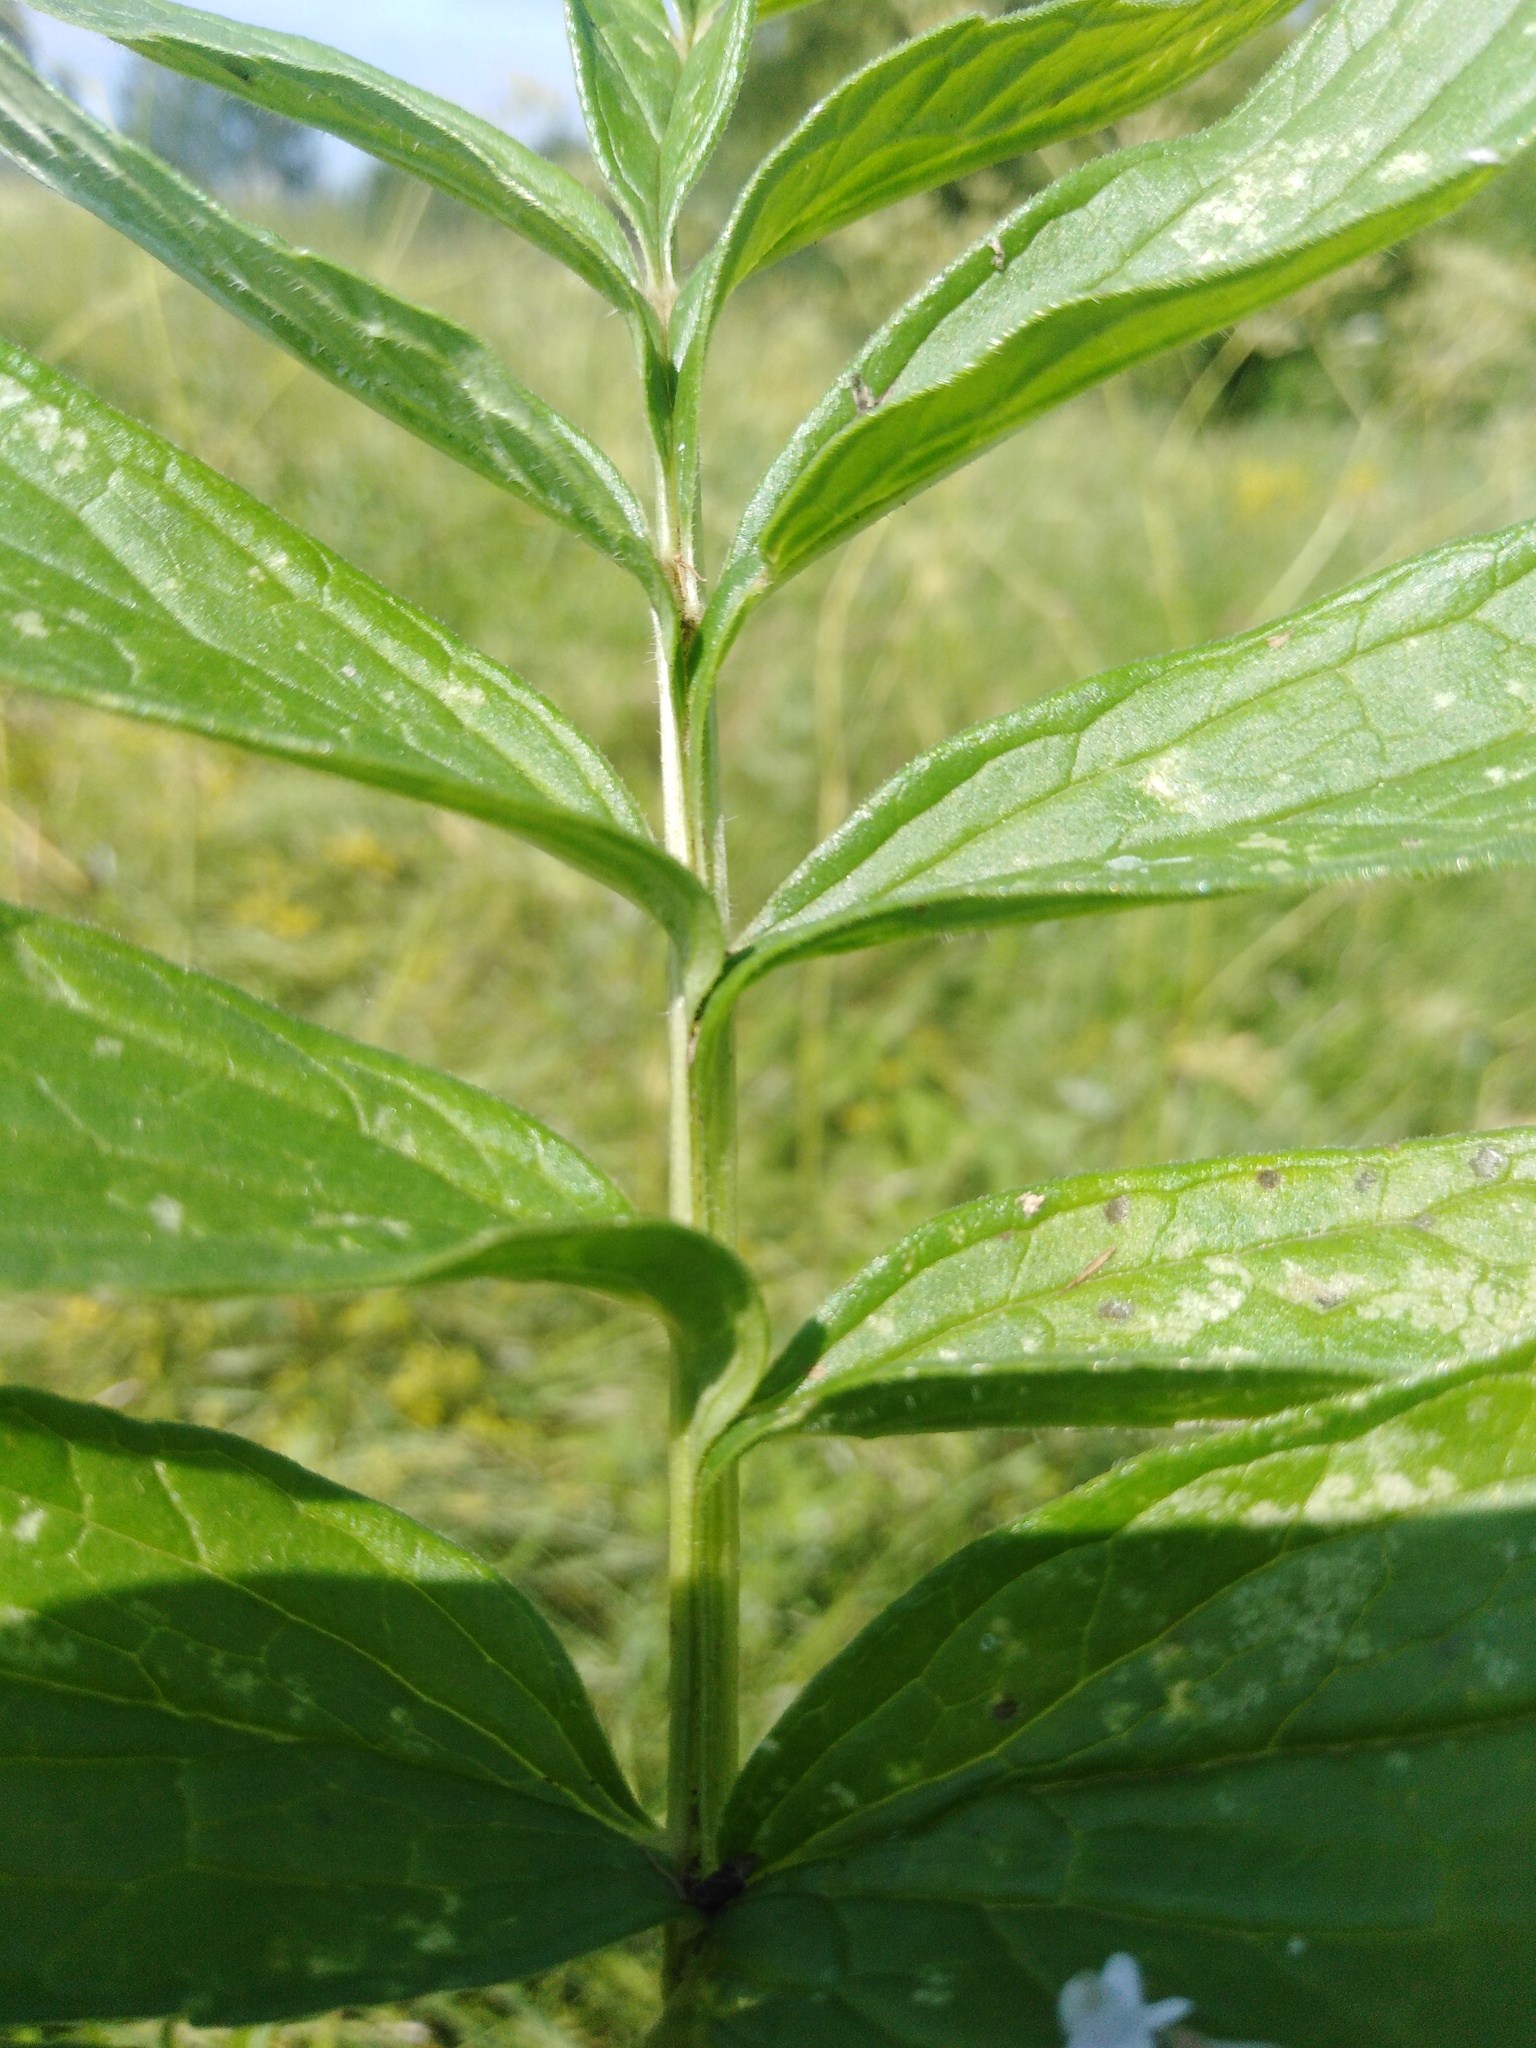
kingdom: Plantae
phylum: Tracheophyta
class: Magnoliopsida
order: Dipsacales
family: Caprifoliaceae
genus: Valeriana
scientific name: Valeriana officinalis
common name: Common valerian
